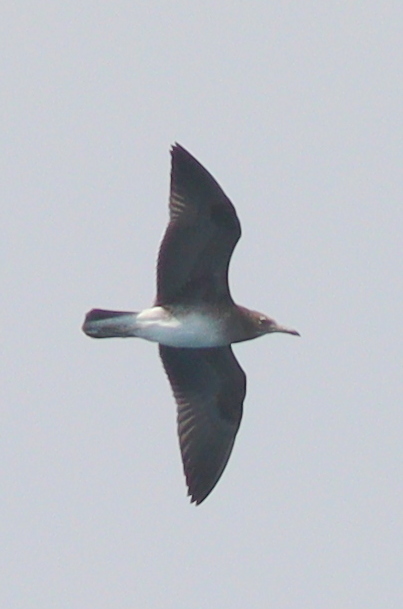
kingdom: Animalia
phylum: Chordata
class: Aves
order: Charadriiformes
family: Laridae
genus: Ichthyaetus
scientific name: Ichthyaetus hemprichii
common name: Sooty gull
